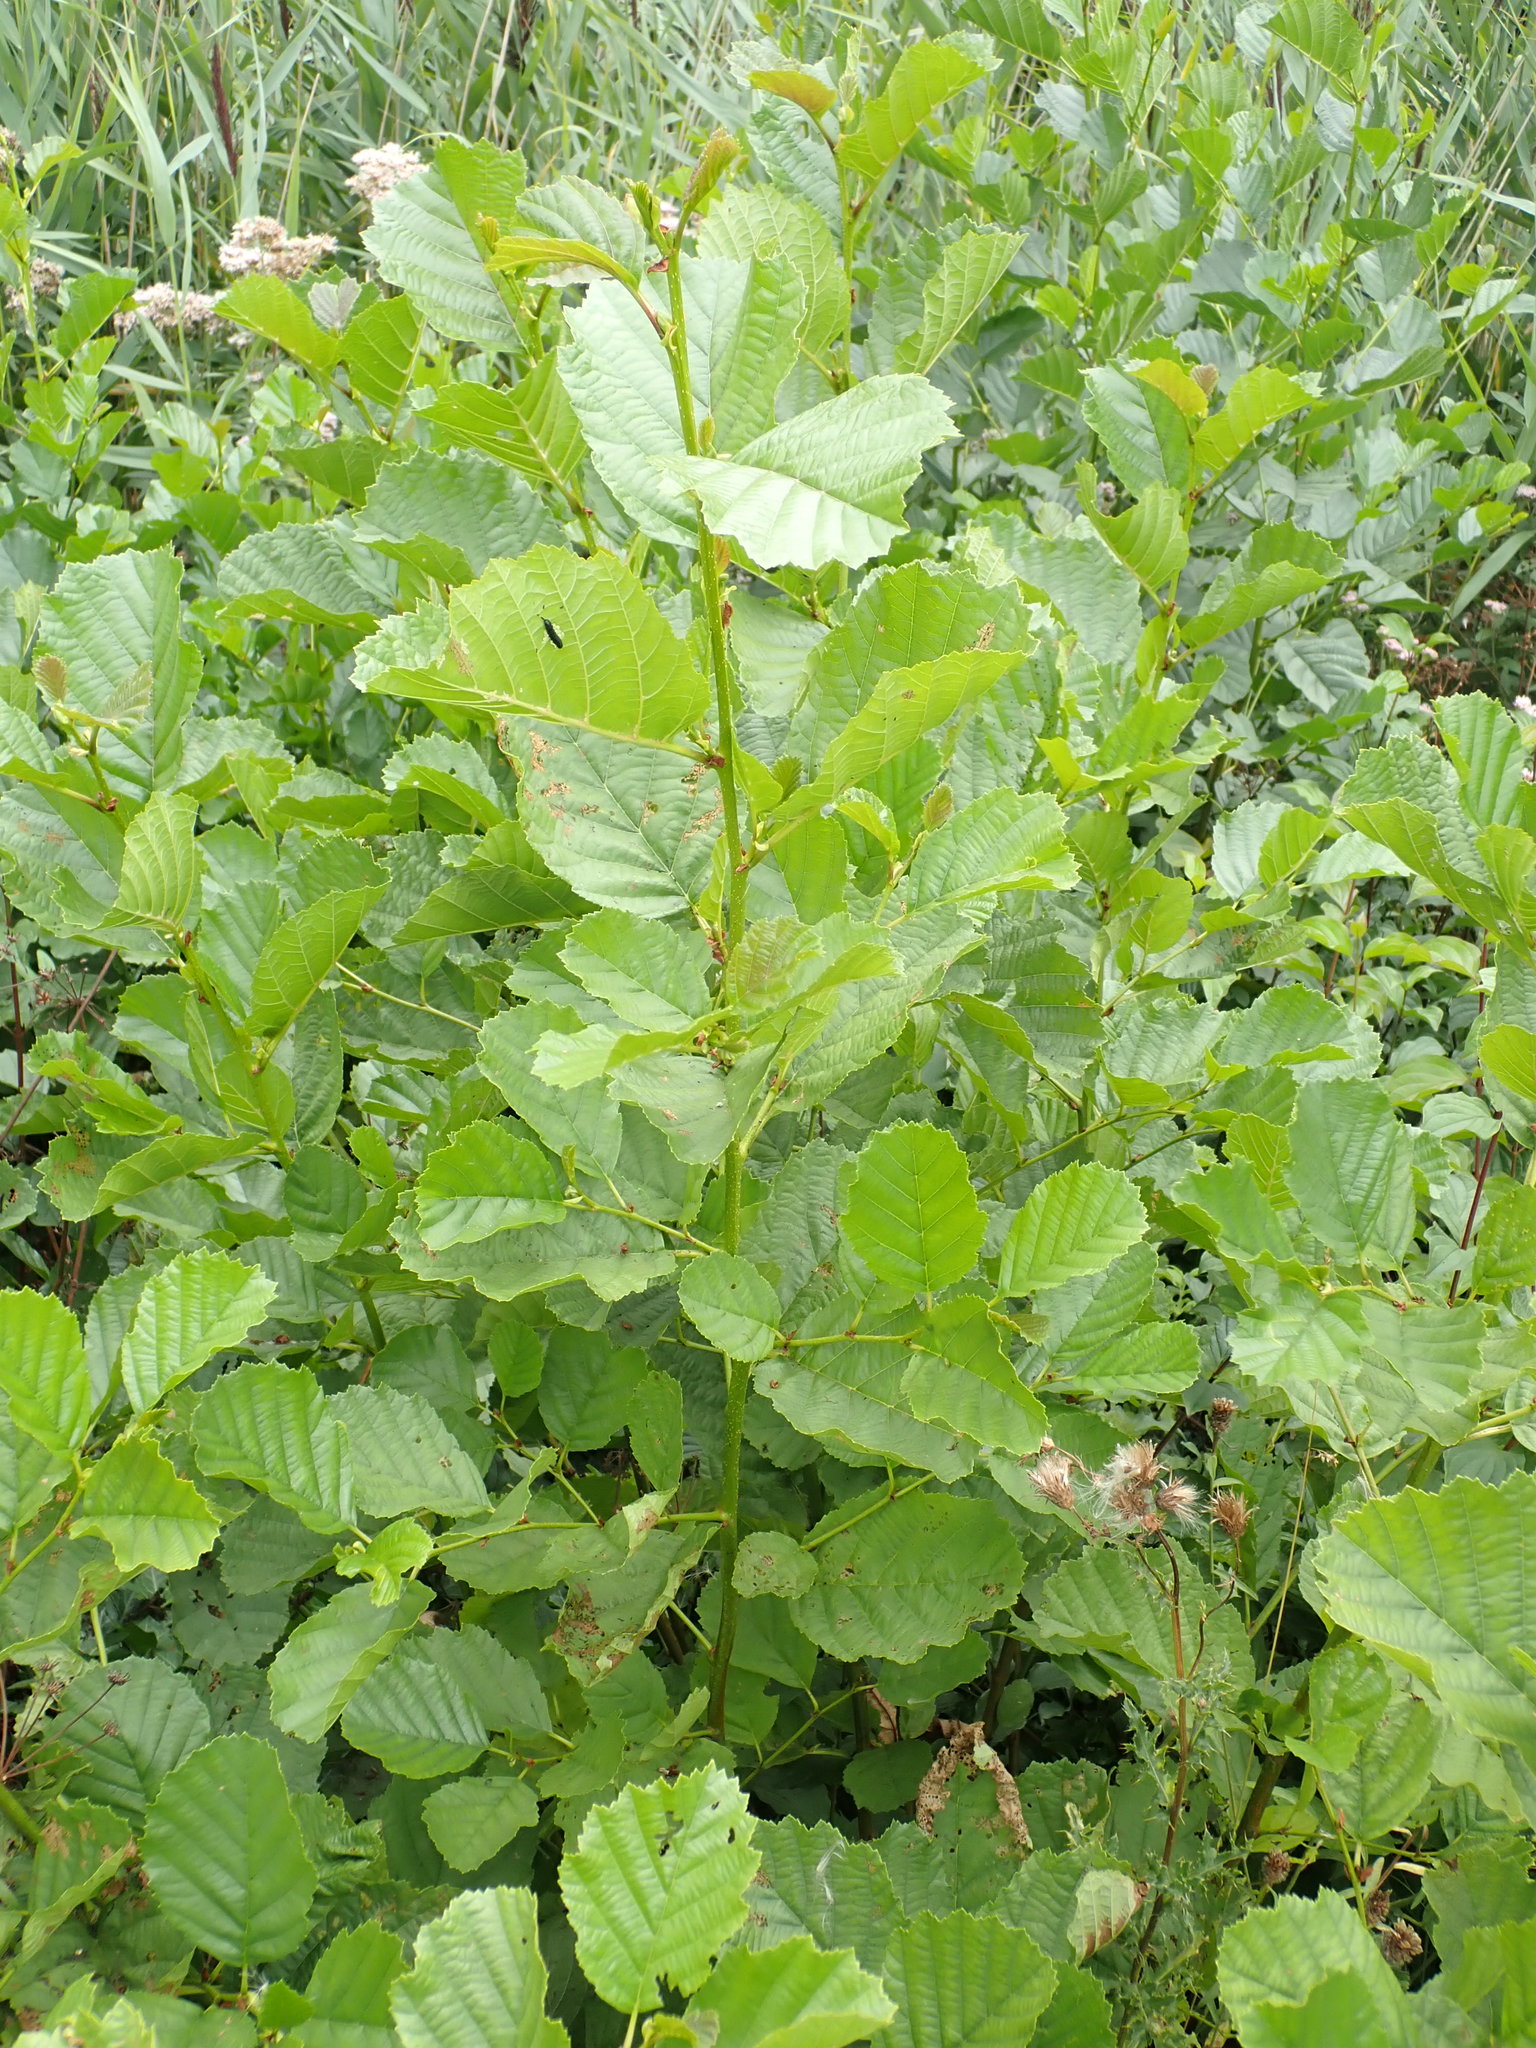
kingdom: Plantae
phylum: Tracheophyta
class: Magnoliopsida
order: Fagales
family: Betulaceae
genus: Alnus
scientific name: Alnus glutinosa
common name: Black alder
